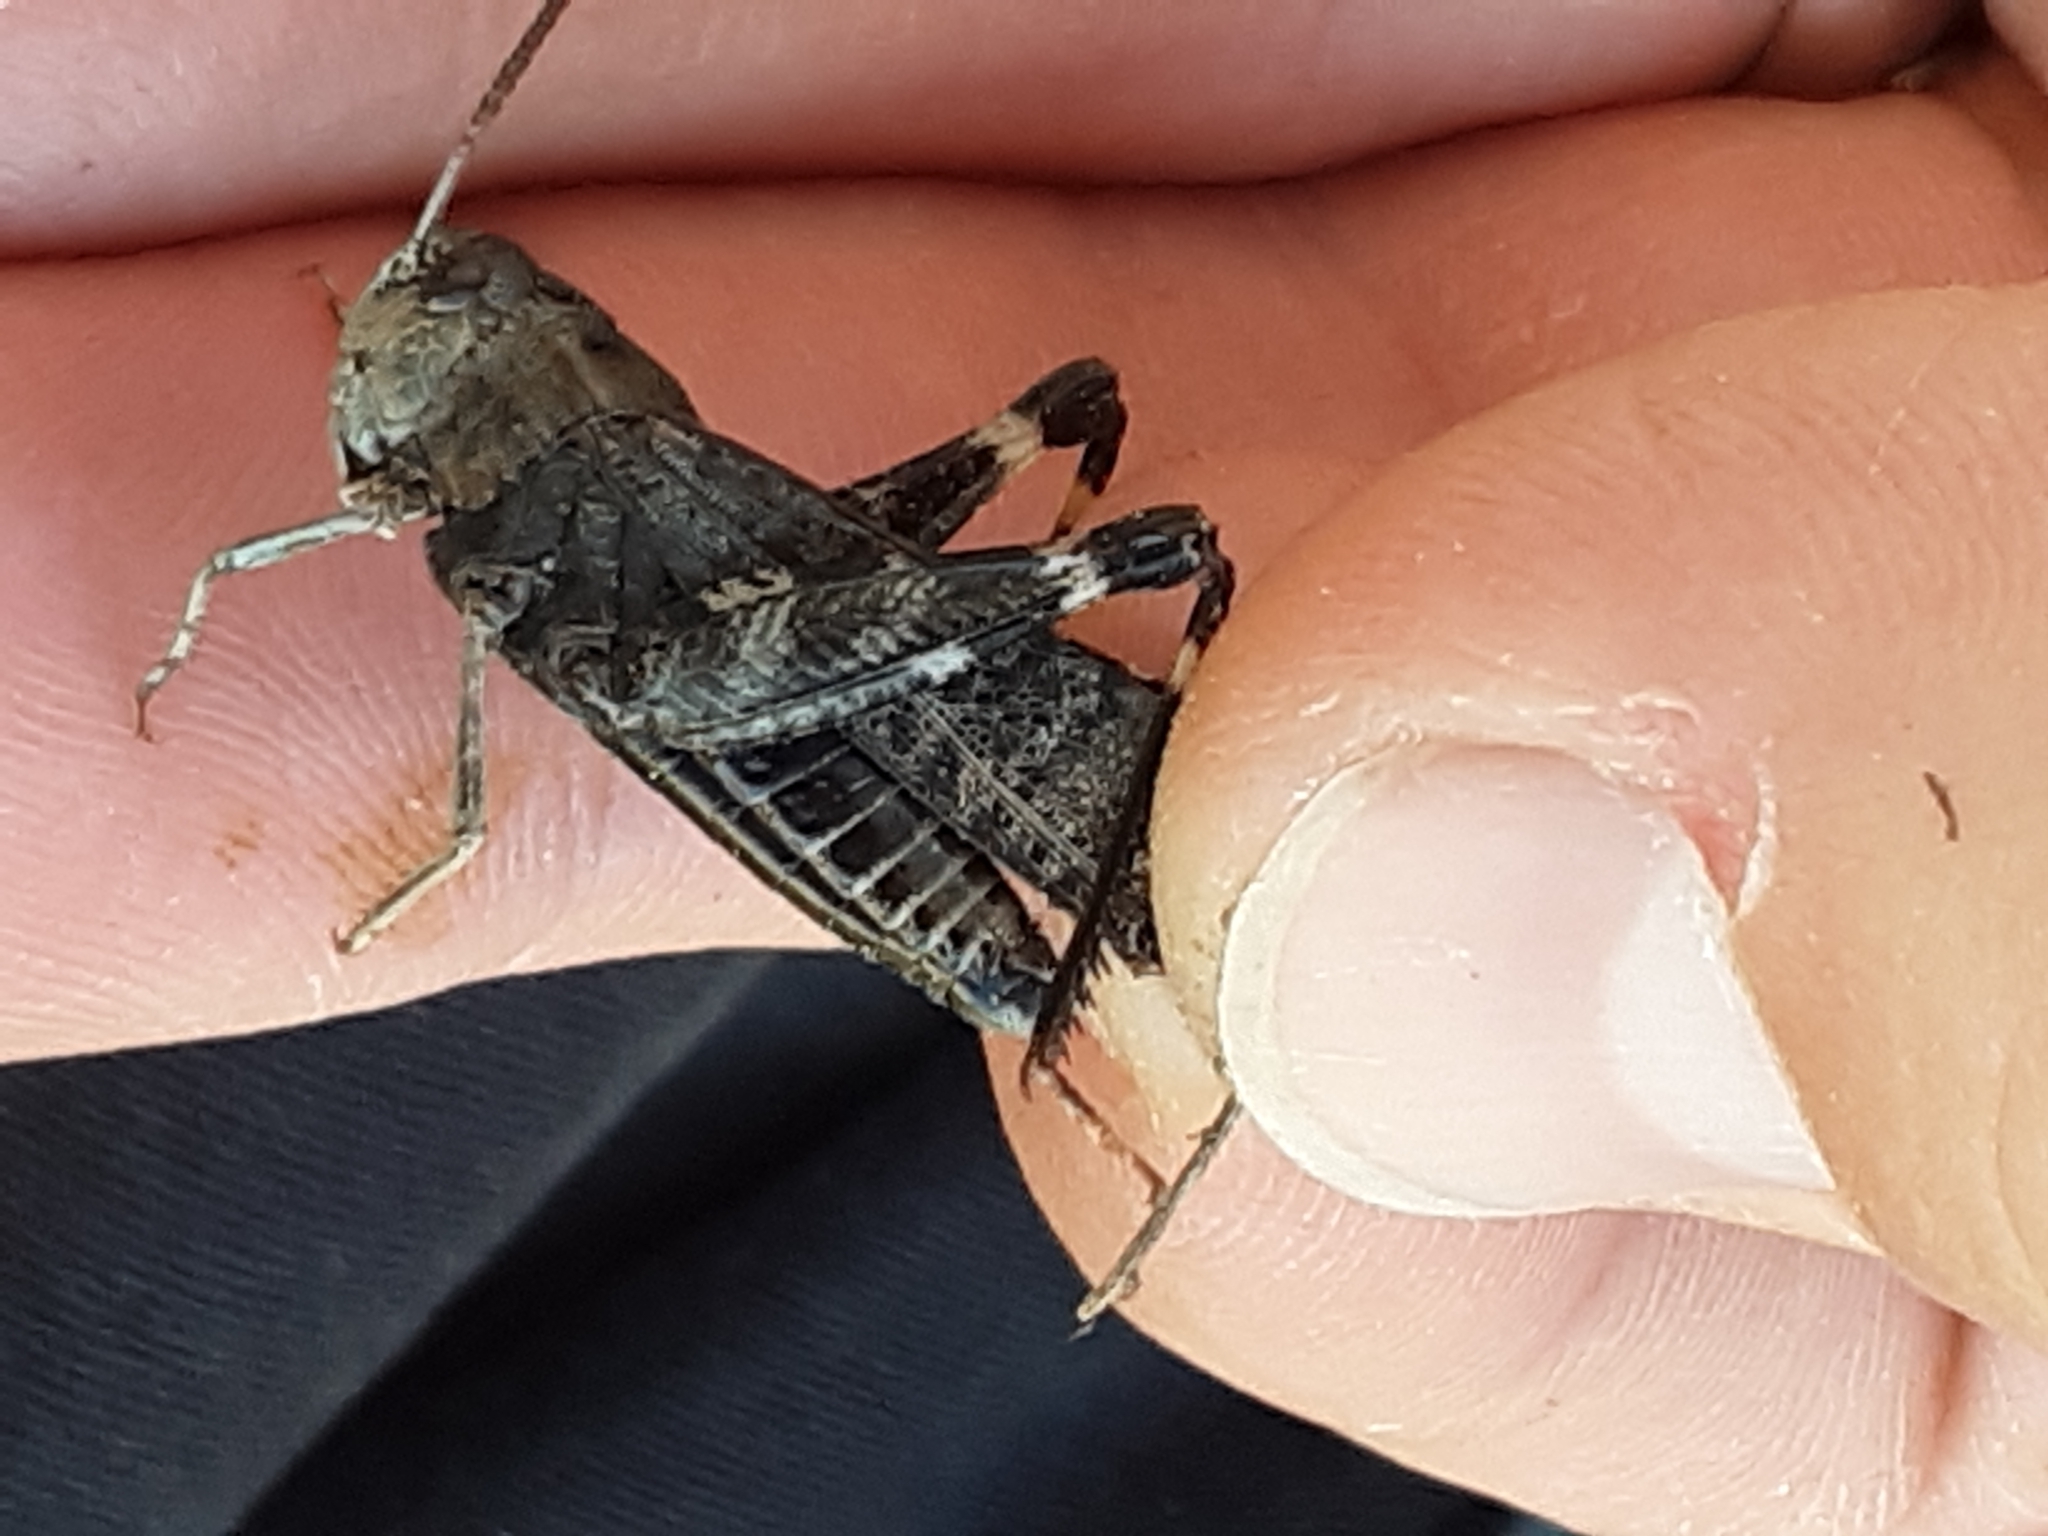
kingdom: Animalia
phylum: Arthropoda
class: Insecta
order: Orthoptera
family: Acrididae
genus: Arphia
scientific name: Arphia pseudo-nietana
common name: Red-winged grasshopper
